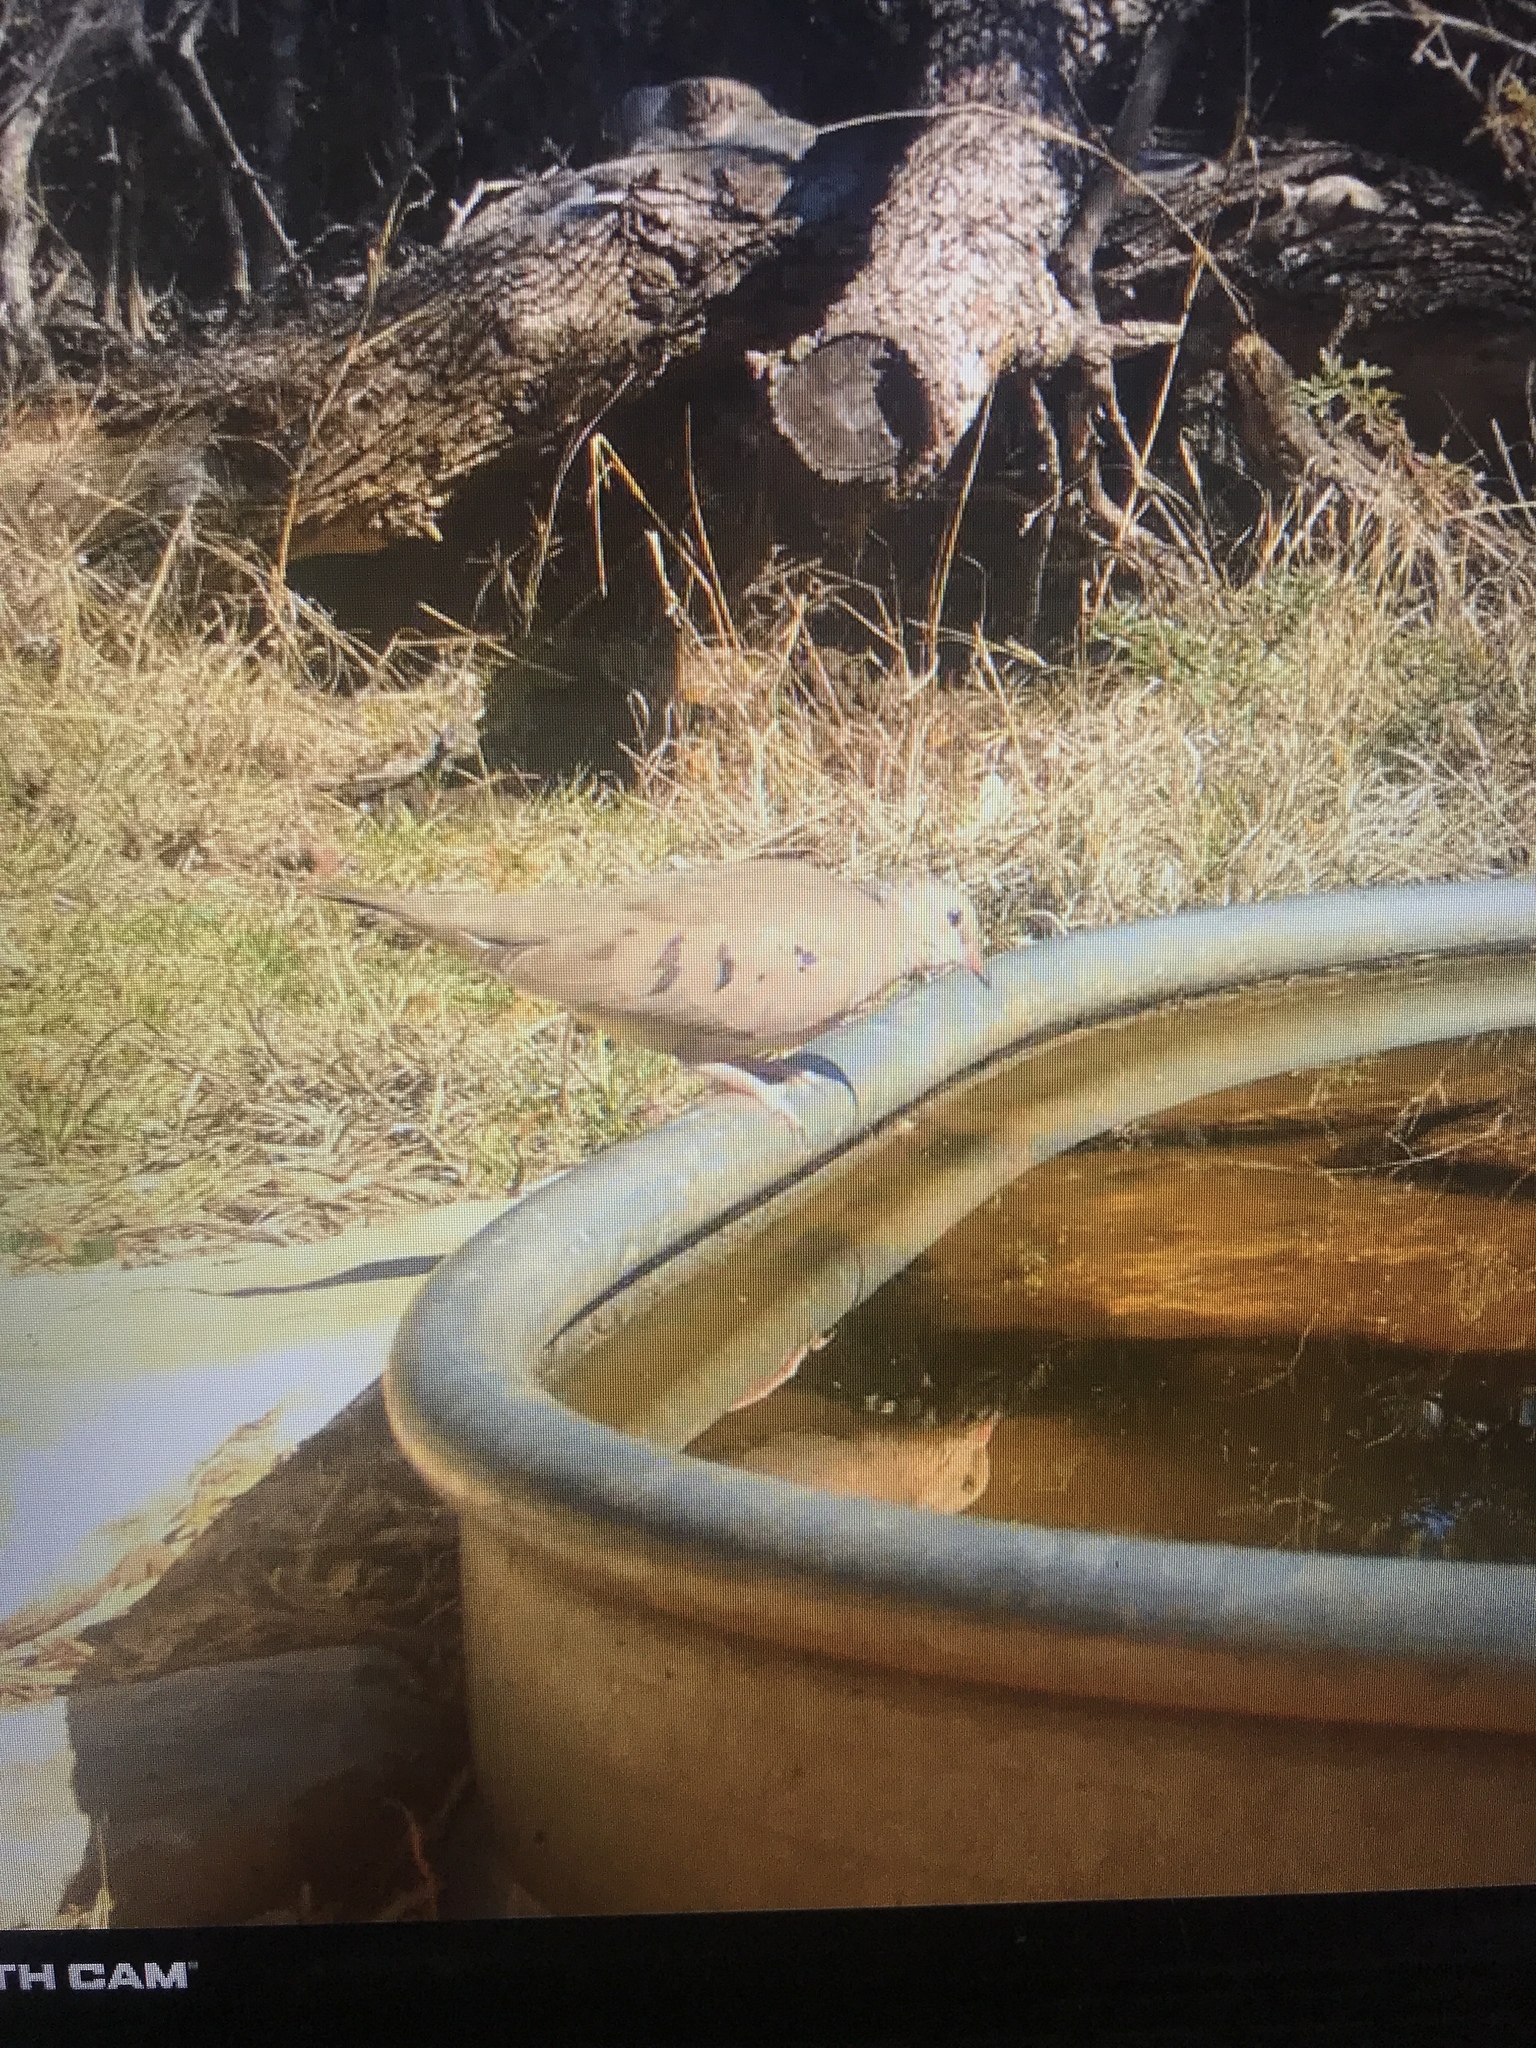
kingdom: Animalia
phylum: Chordata
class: Aves
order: Columbiformes
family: Columbidae
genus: Columbina
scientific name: Columbina passerina
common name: Common ground-dove
